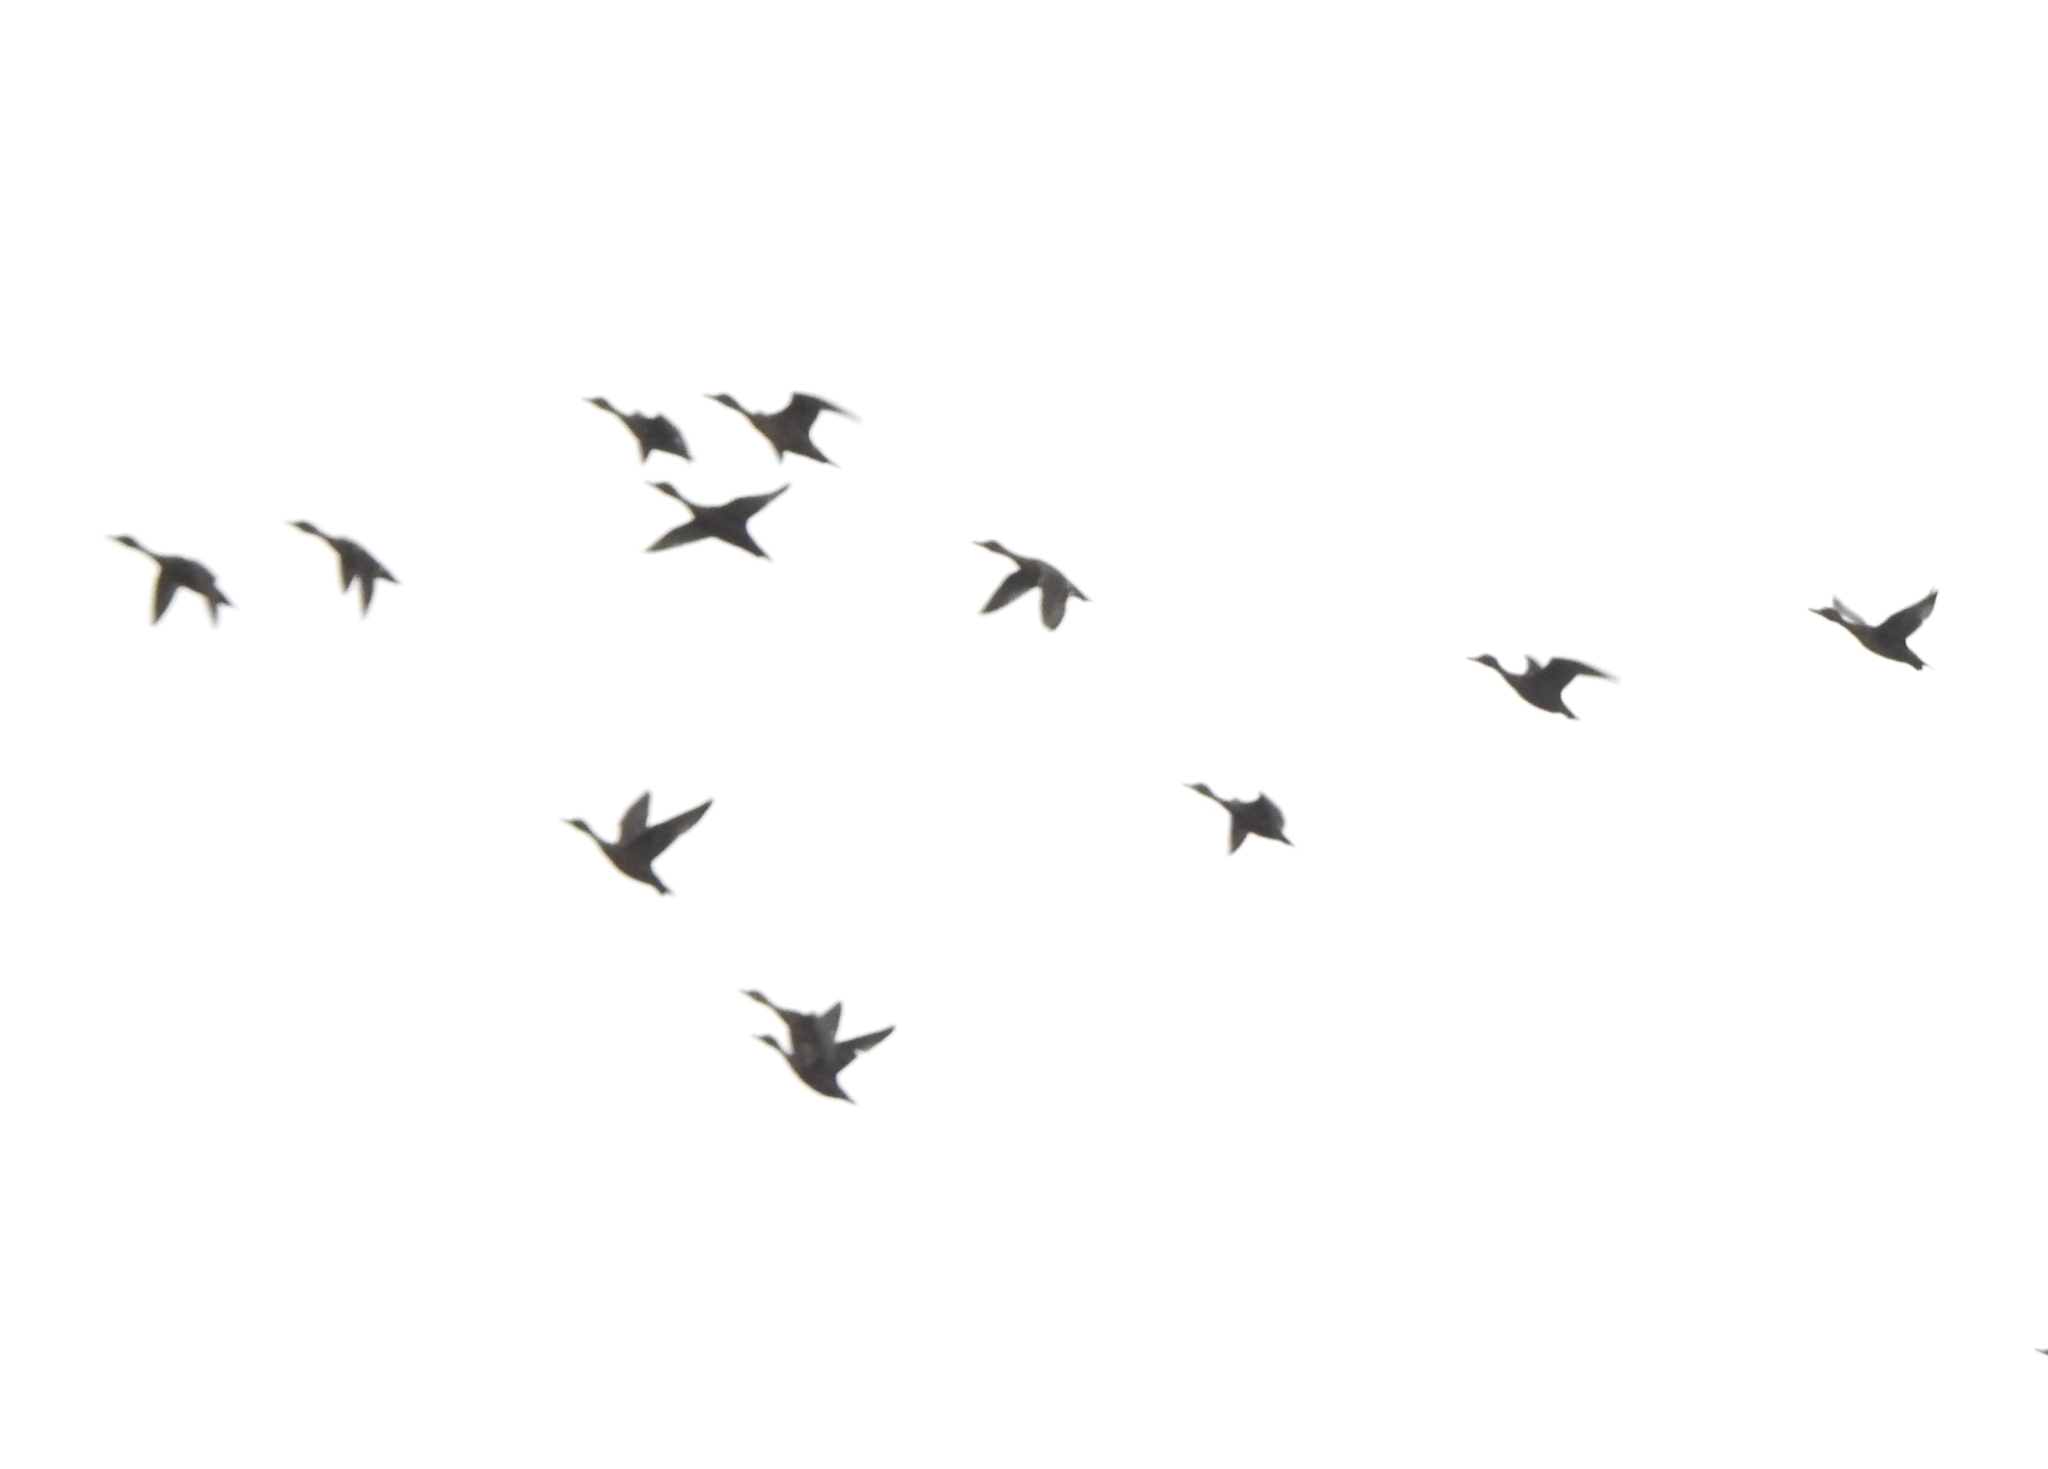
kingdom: Animalia
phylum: Chordata
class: Aves
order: Anseriformes
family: Anatidae
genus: Anas
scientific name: Anas acuta
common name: Northern pintail
